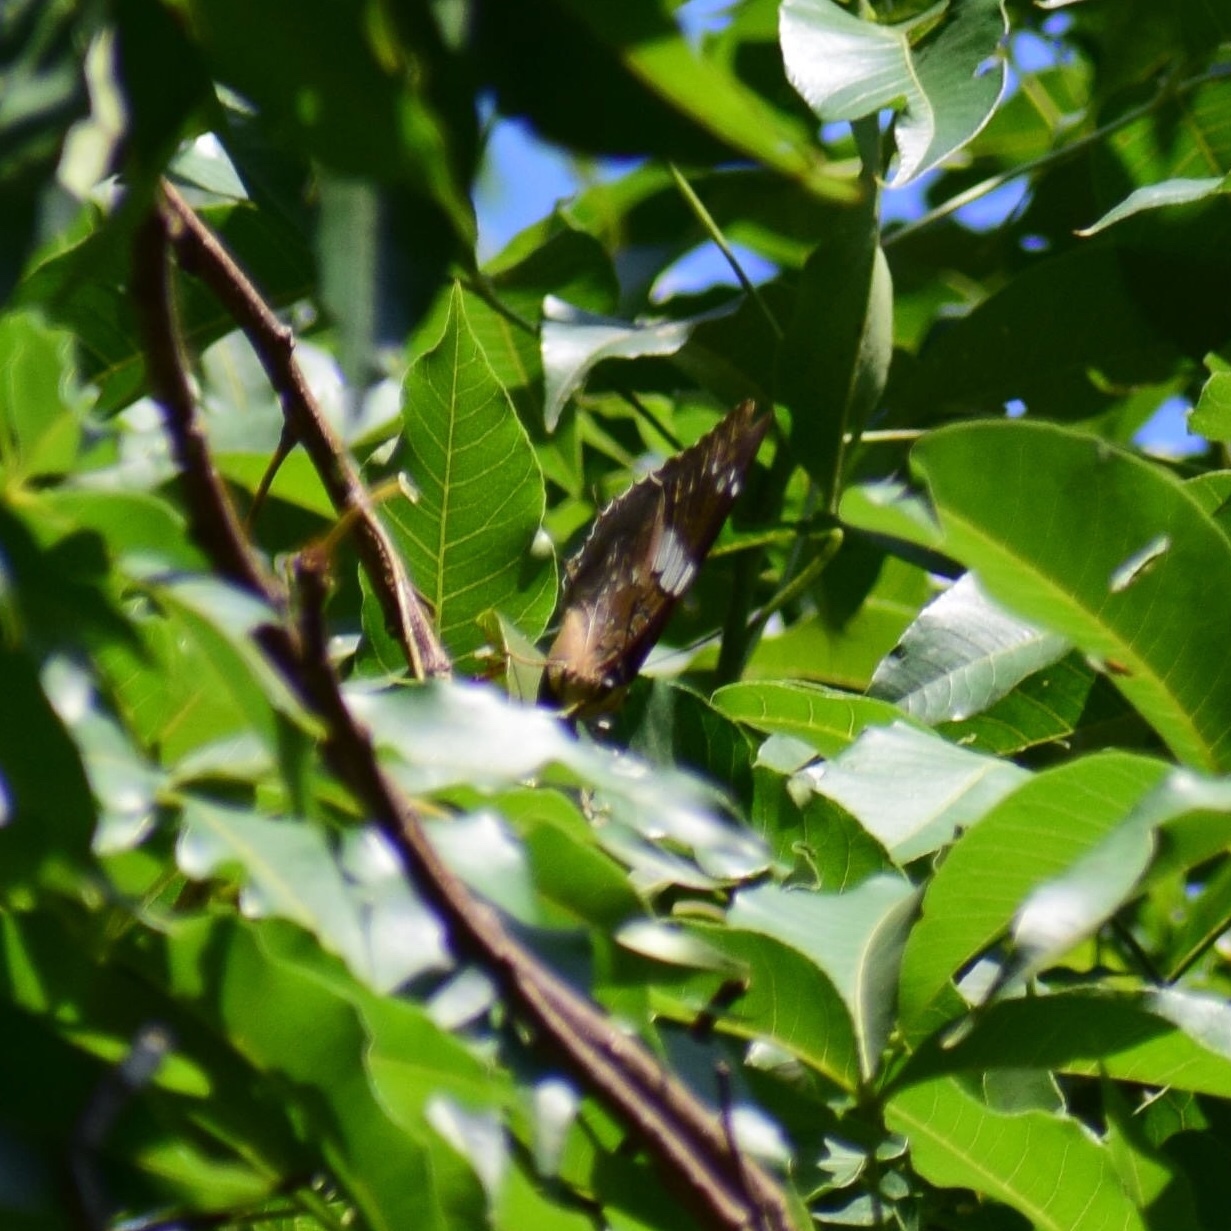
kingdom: Animalia
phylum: Arthropoda
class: Insecta
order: Lepidoptera
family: Nymphalidae
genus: Charaxes
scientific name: Charaxes cithaeron
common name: Blue-spotted charaxes
